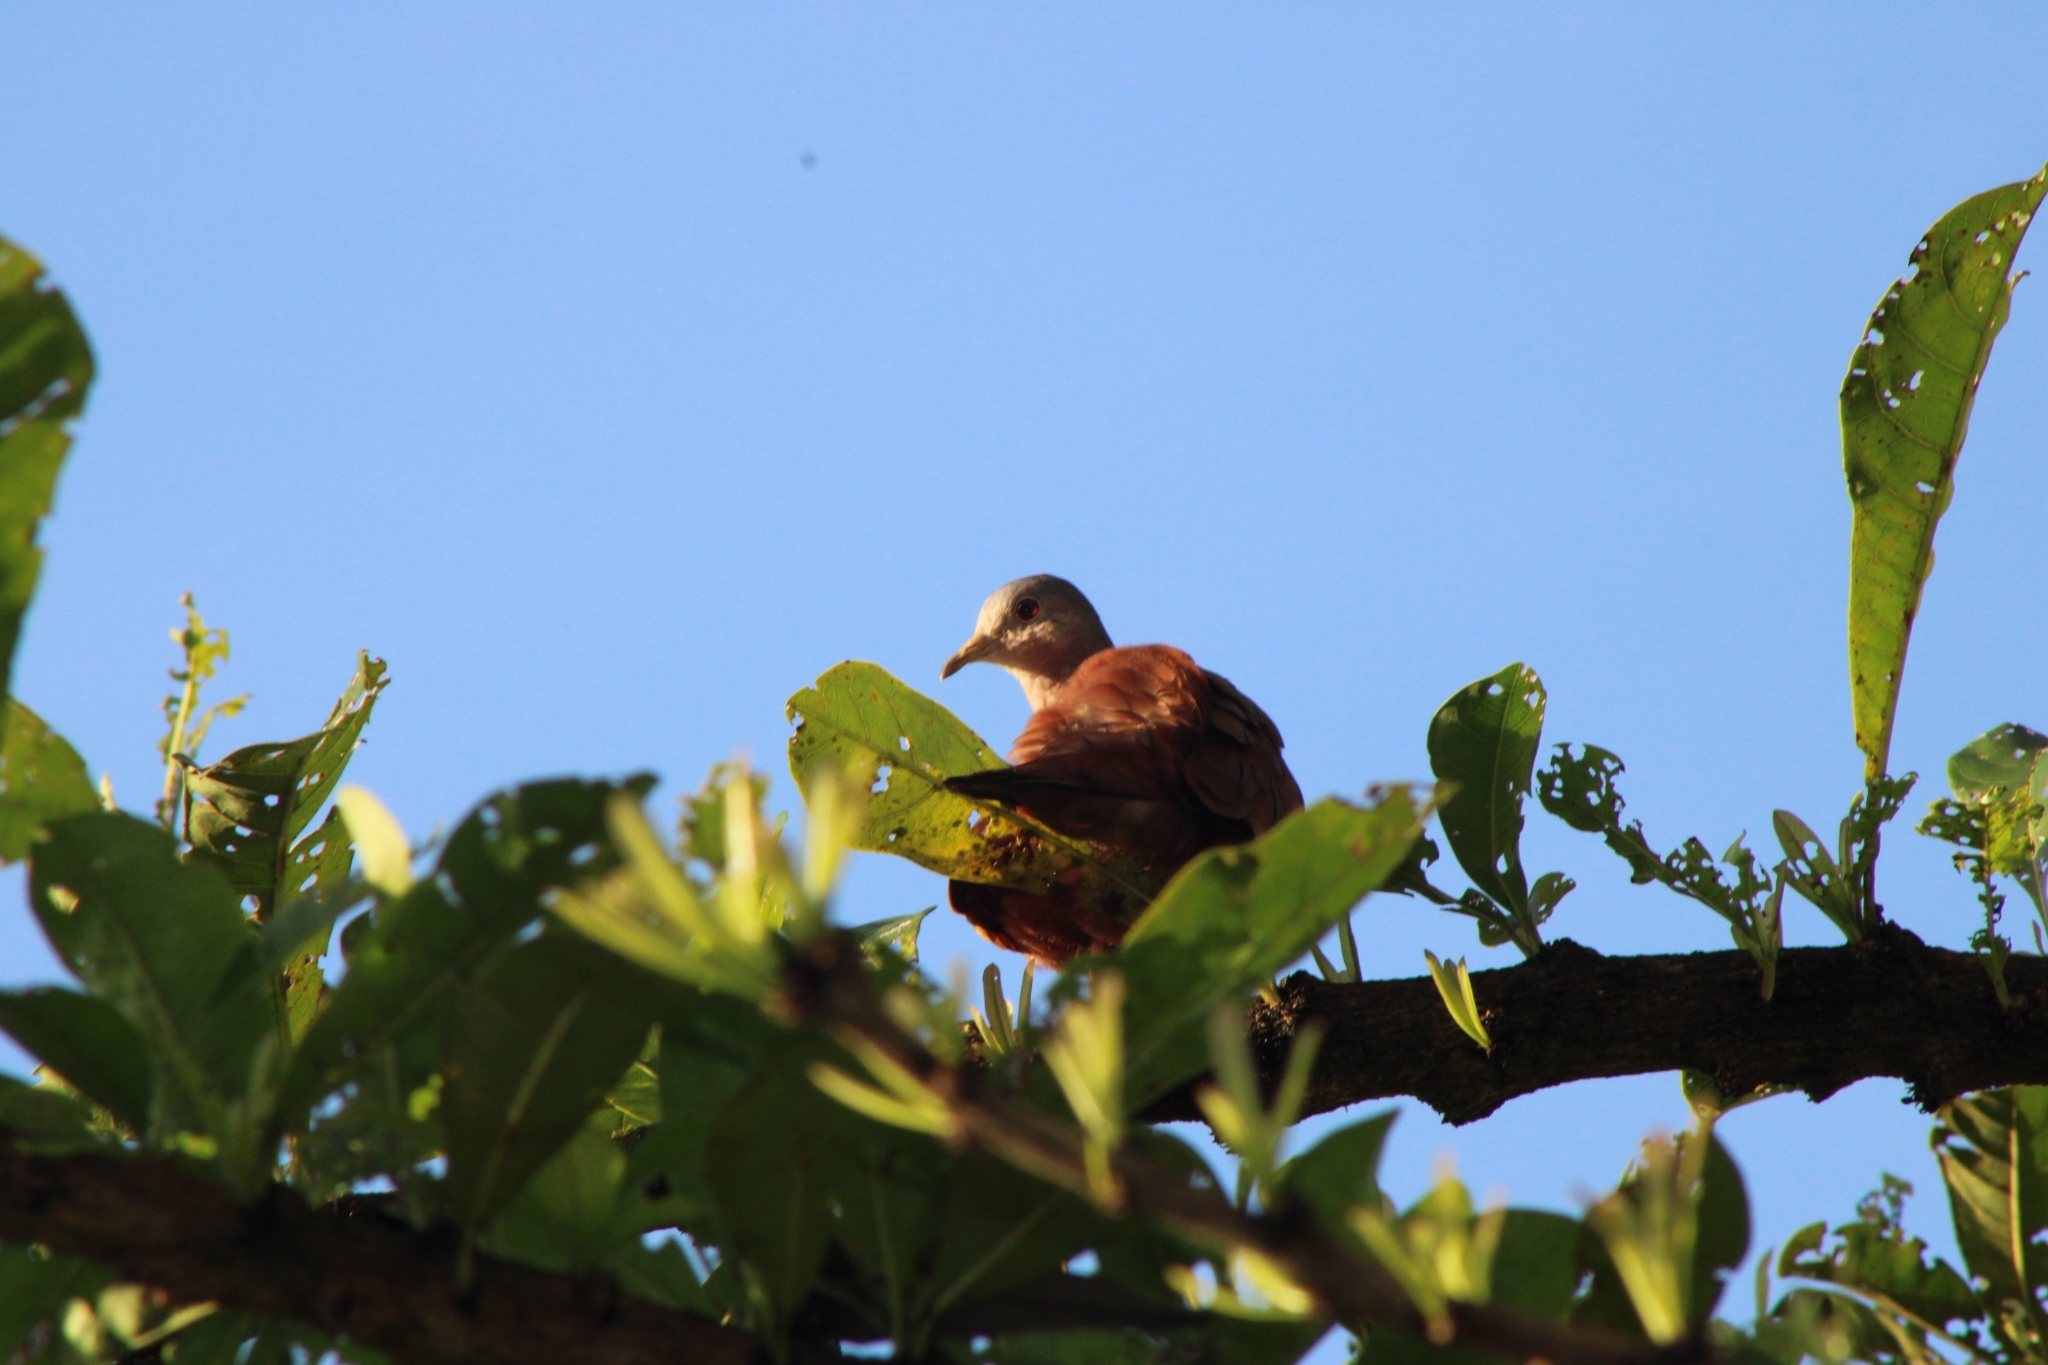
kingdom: Animalia
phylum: Chordata
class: Aves
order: Columbiformes
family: Columbidae
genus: Columbina
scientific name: Columbina talpacoti
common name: Ruddy ground dove
